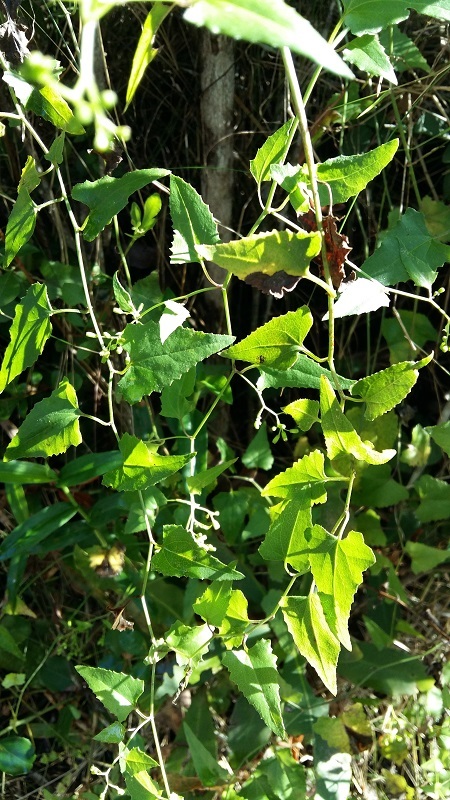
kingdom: Plantae
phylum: Tracheophyta
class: Magnoliopsida
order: Asterales
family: Asteraceae
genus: Senecio
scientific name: Senecio deltoideus
